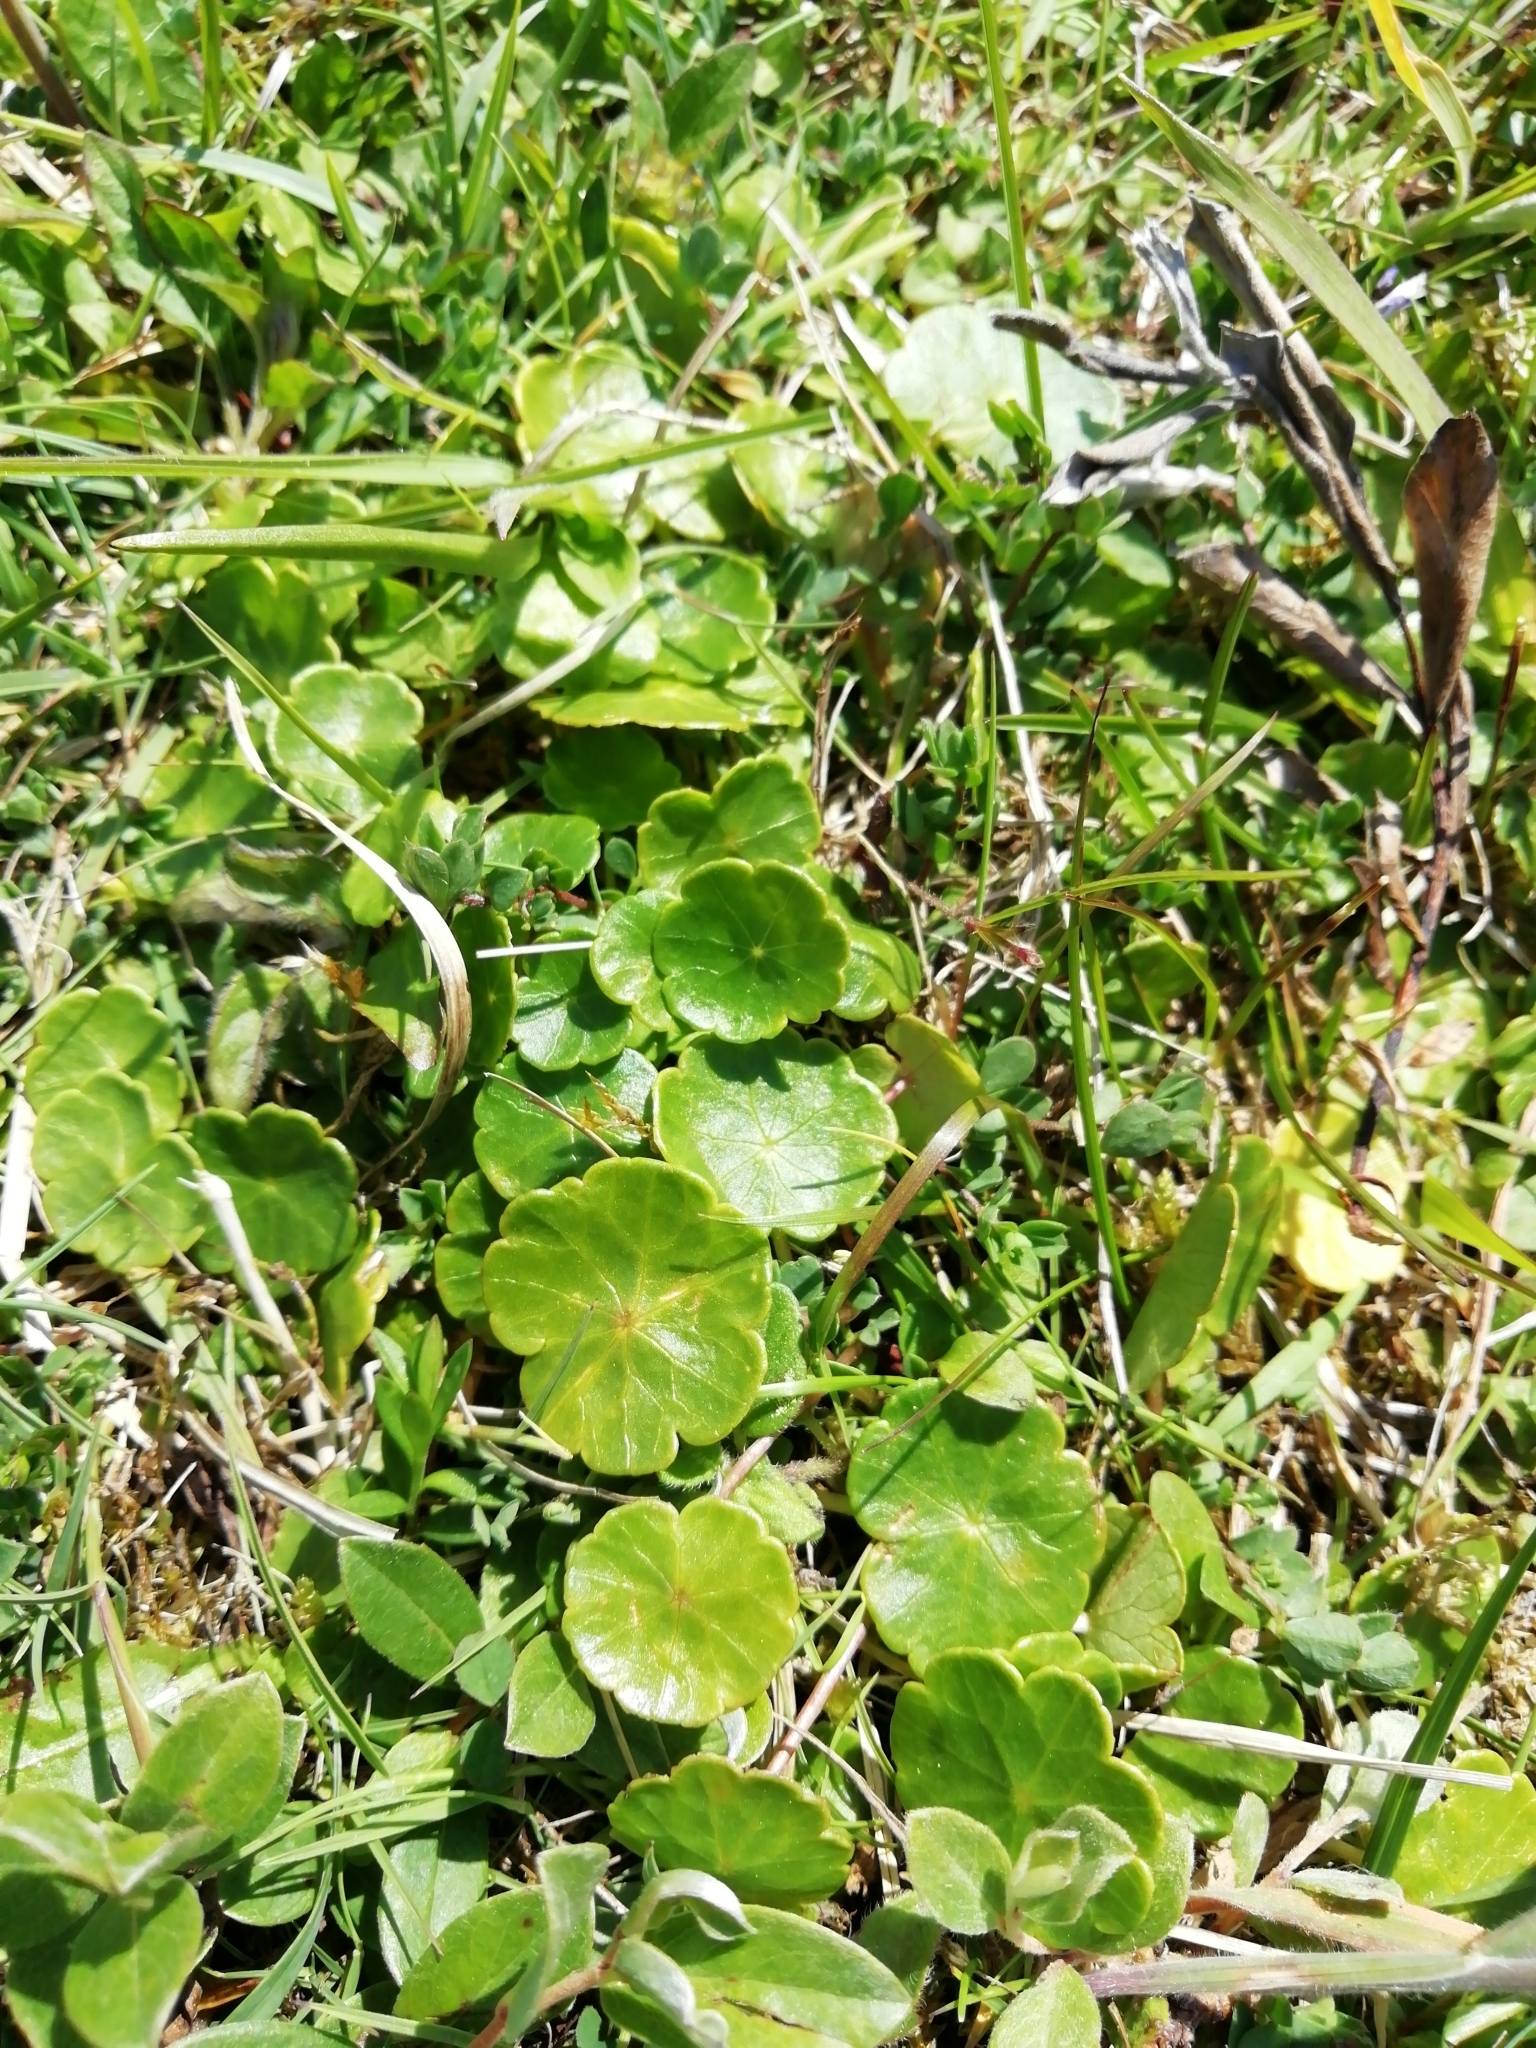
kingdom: Plantae
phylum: Tracheophyta
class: Magnoliopsida
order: Apiales
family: Araliaceae
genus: Hydrocotyle
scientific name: Hydrocotyle vulgaris
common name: Marsh pennywort
